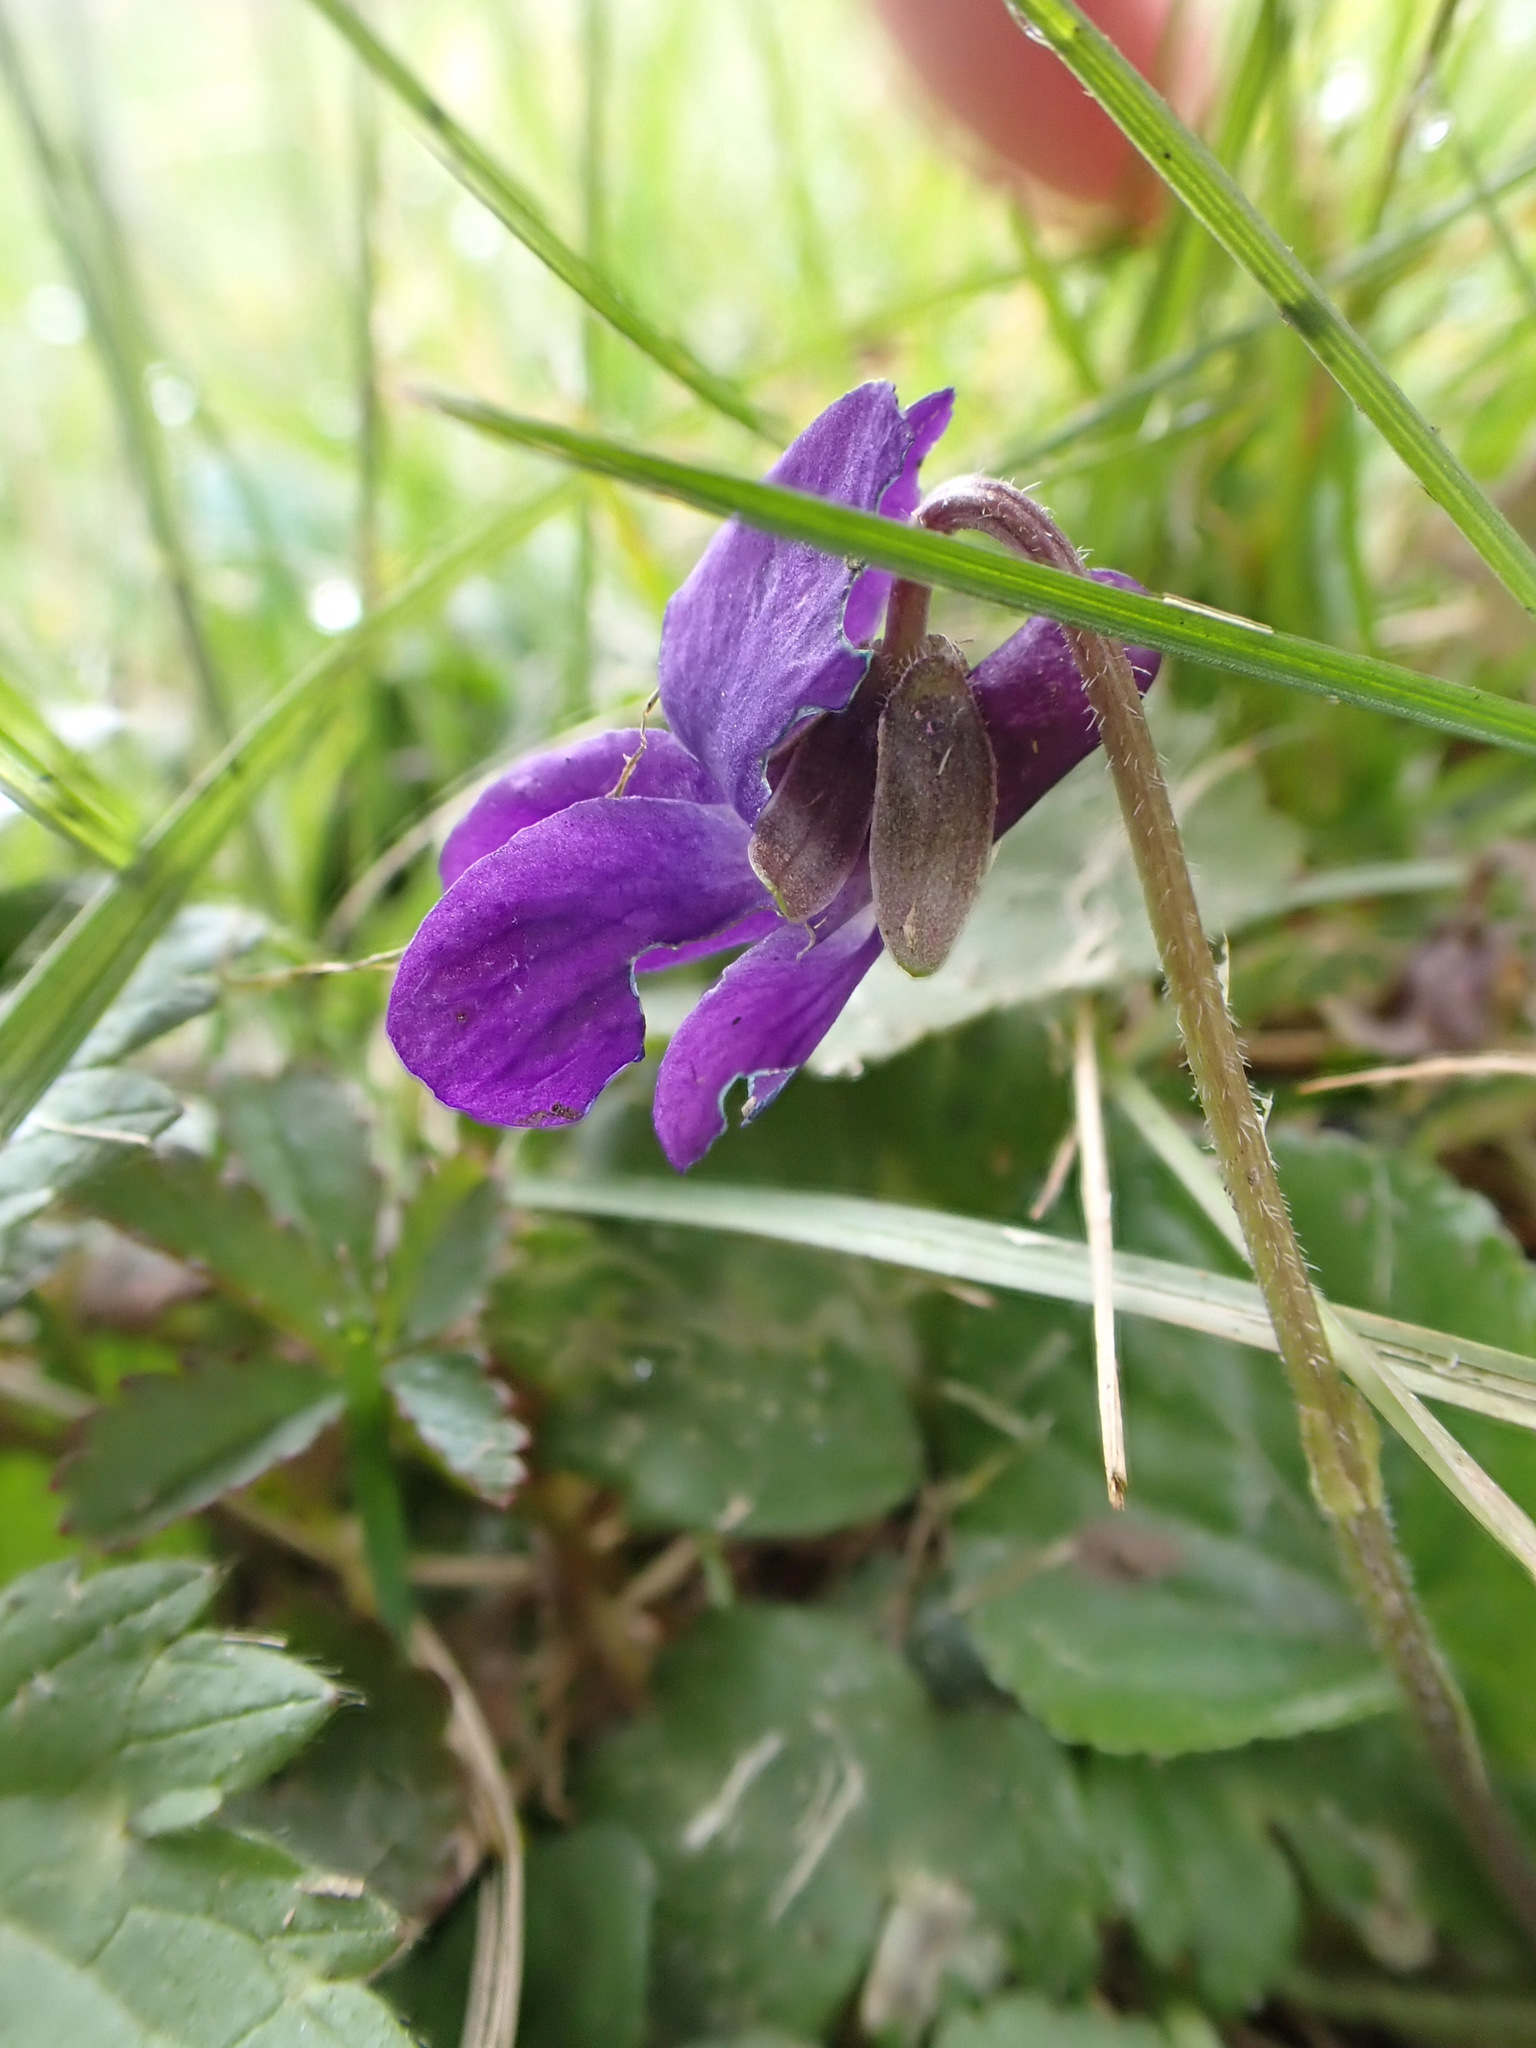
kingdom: Plantae
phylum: Tracheophyta
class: Magnoliopsida
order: Malpighiales
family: Violaceae
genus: Viola
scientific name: Viola odorata
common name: Sweet violet
